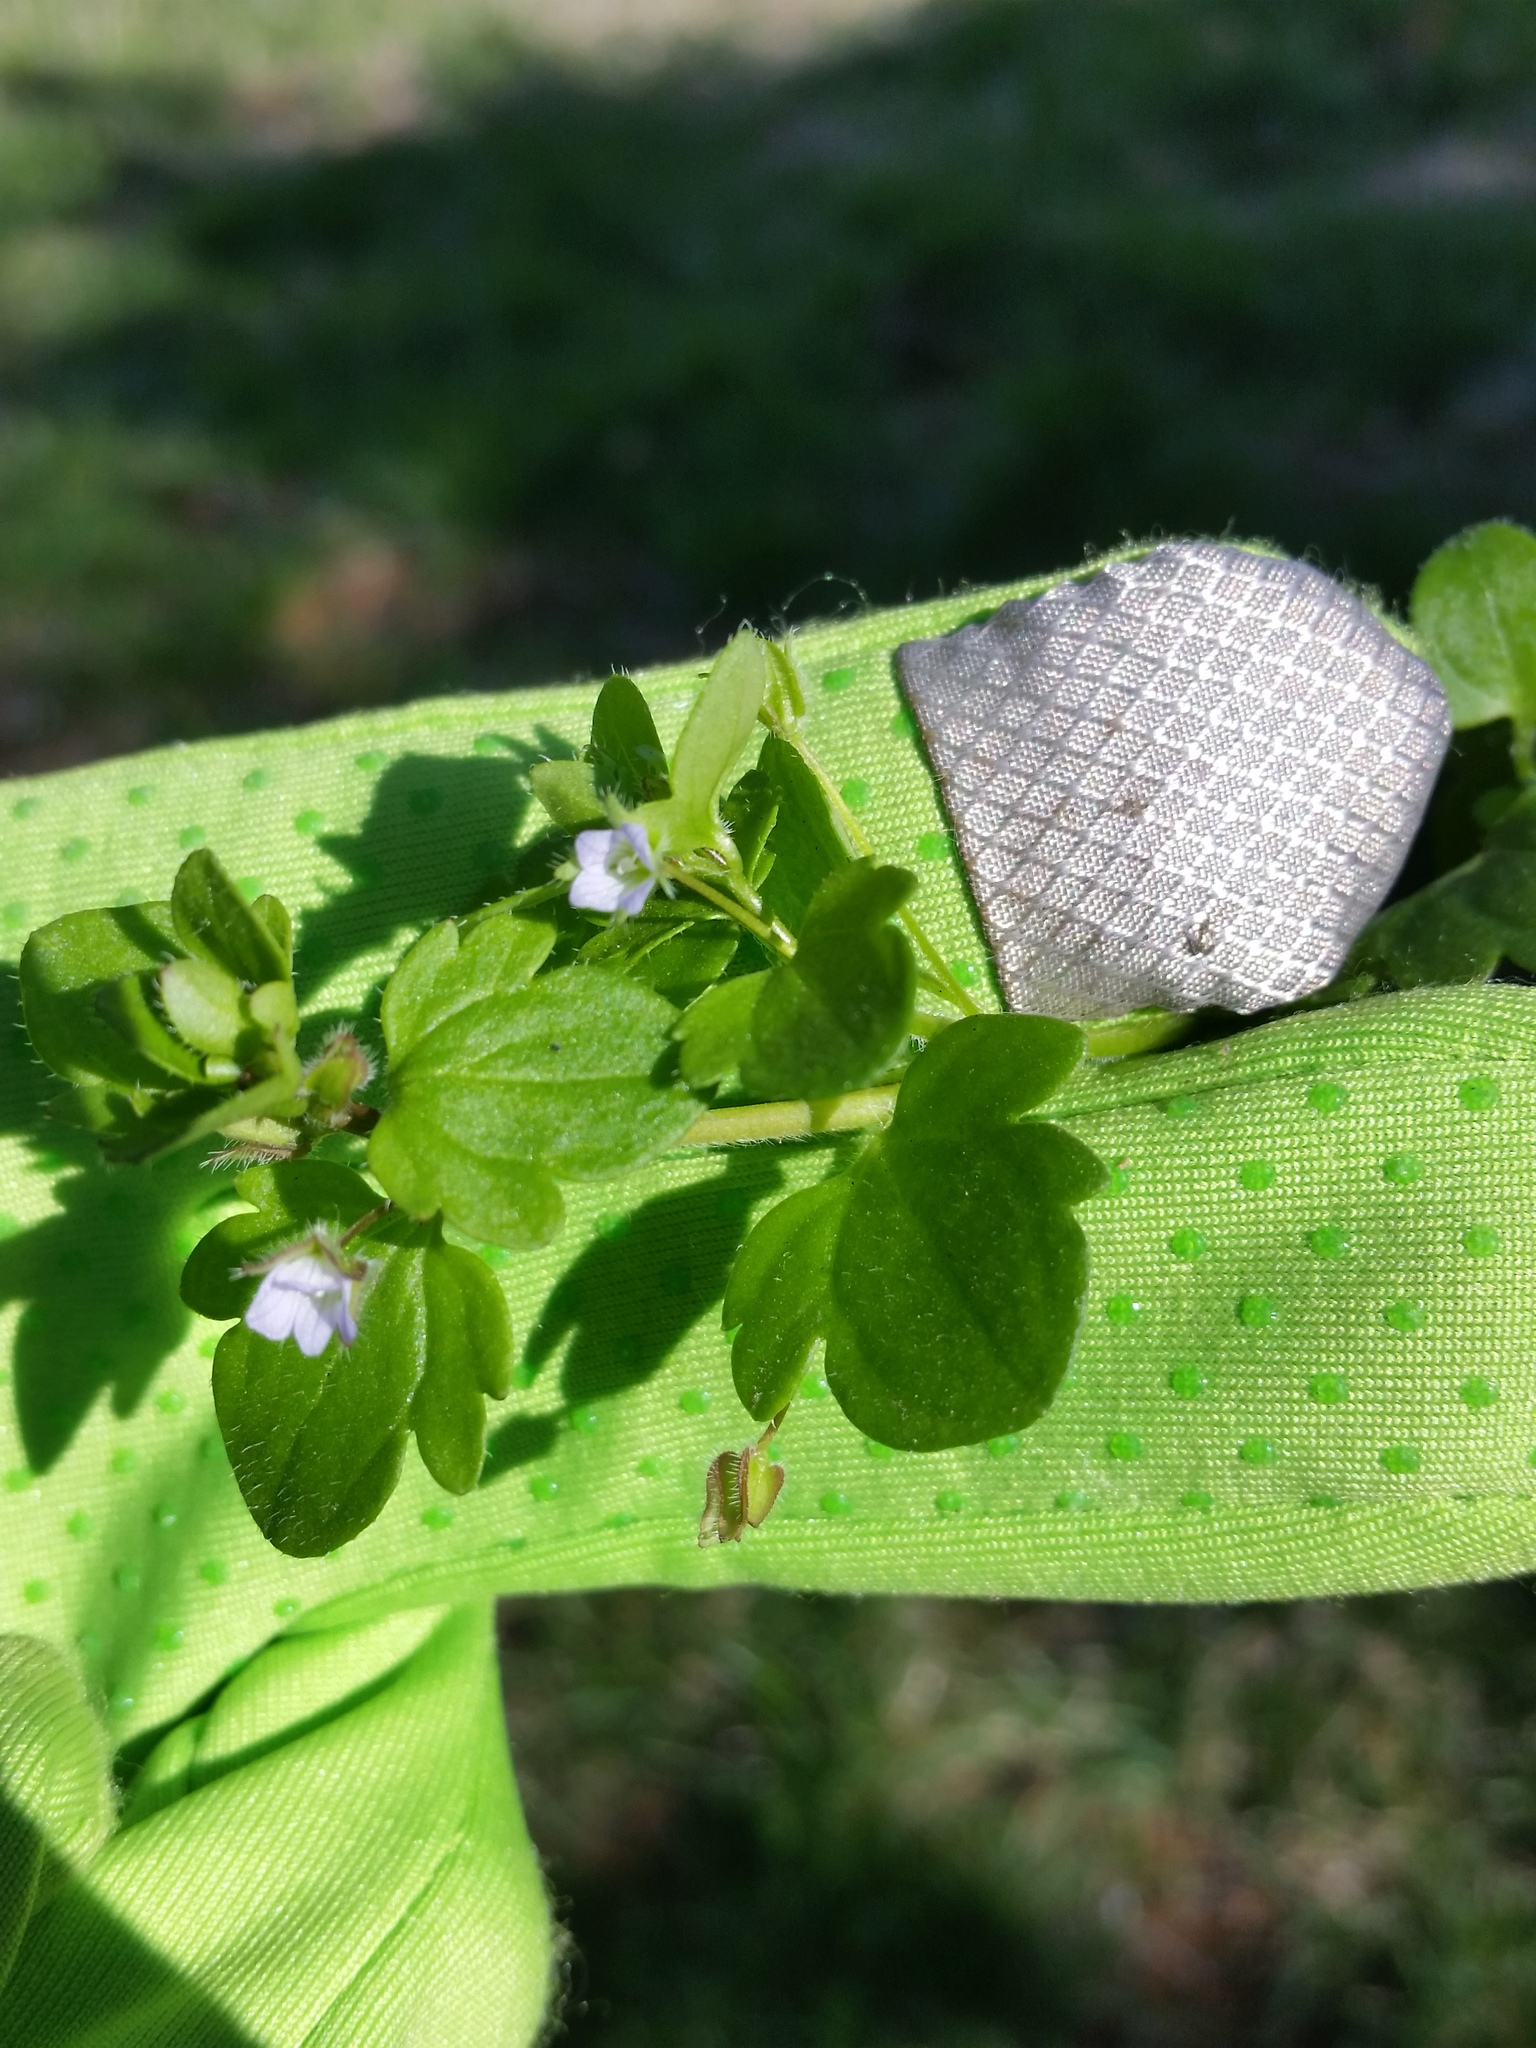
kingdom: Plantae
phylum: Tracheophyta
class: Magnoliopsida
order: Lamiales
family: Plantaginaceae
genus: Veronica
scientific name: Veronica hederifolia
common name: Ivy-leaved speedwell
